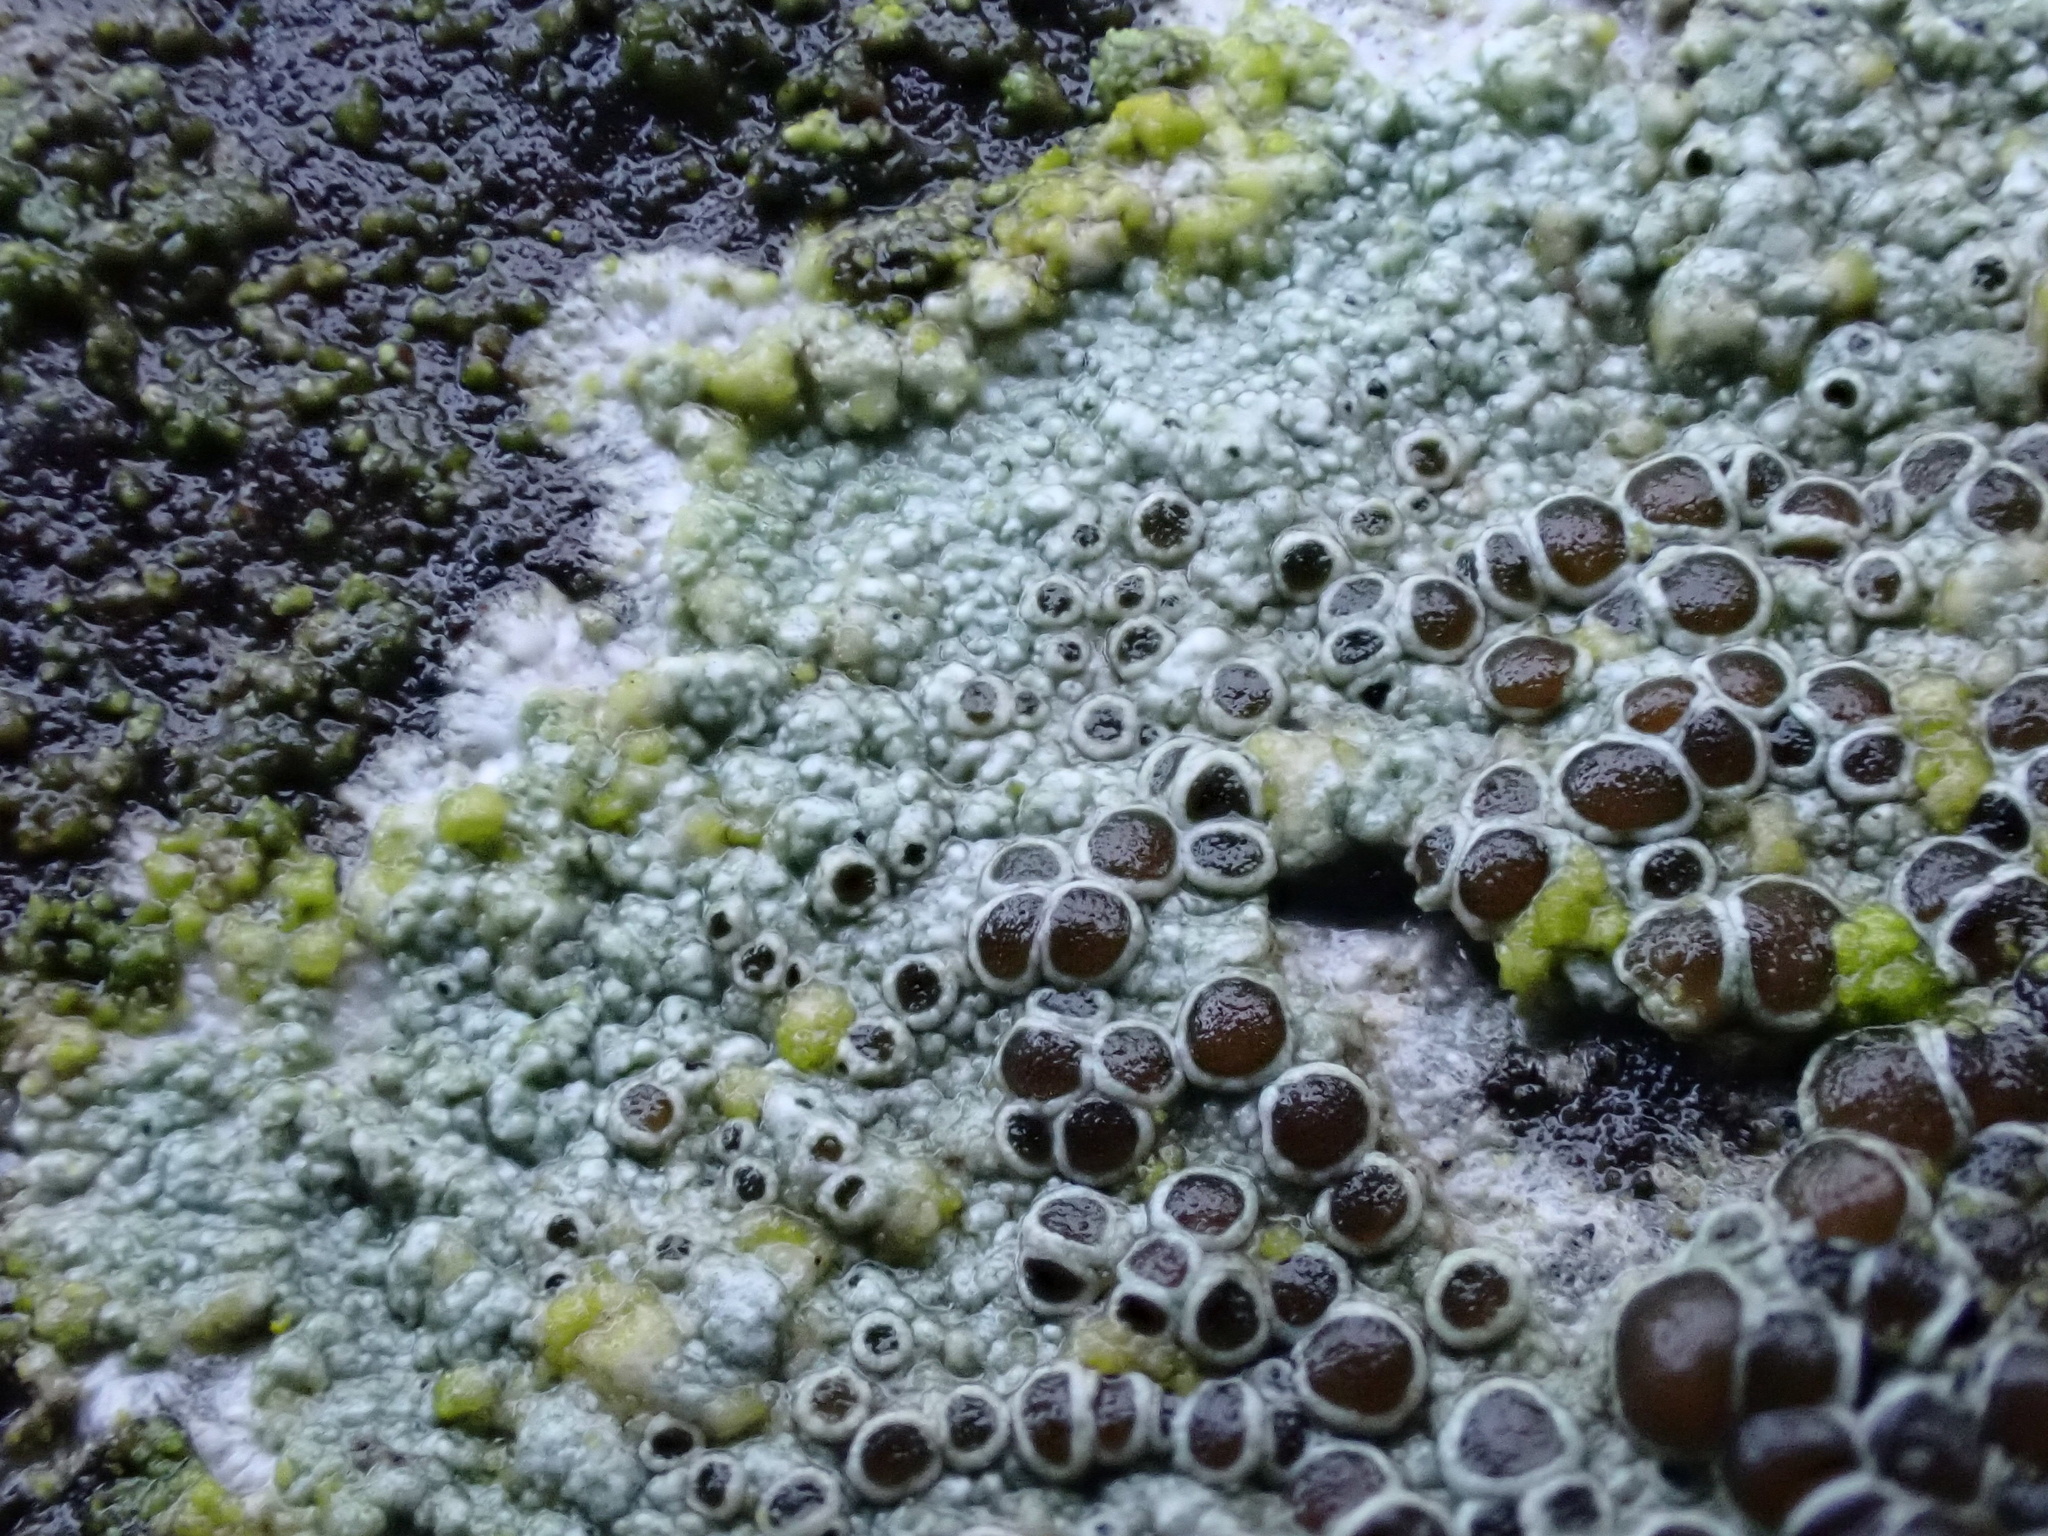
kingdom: Fungi
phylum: Ascomycota
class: Lecanoromycetes
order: Lecanorales
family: Lecanoraceae
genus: Lecanora
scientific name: Lecanora campestris
